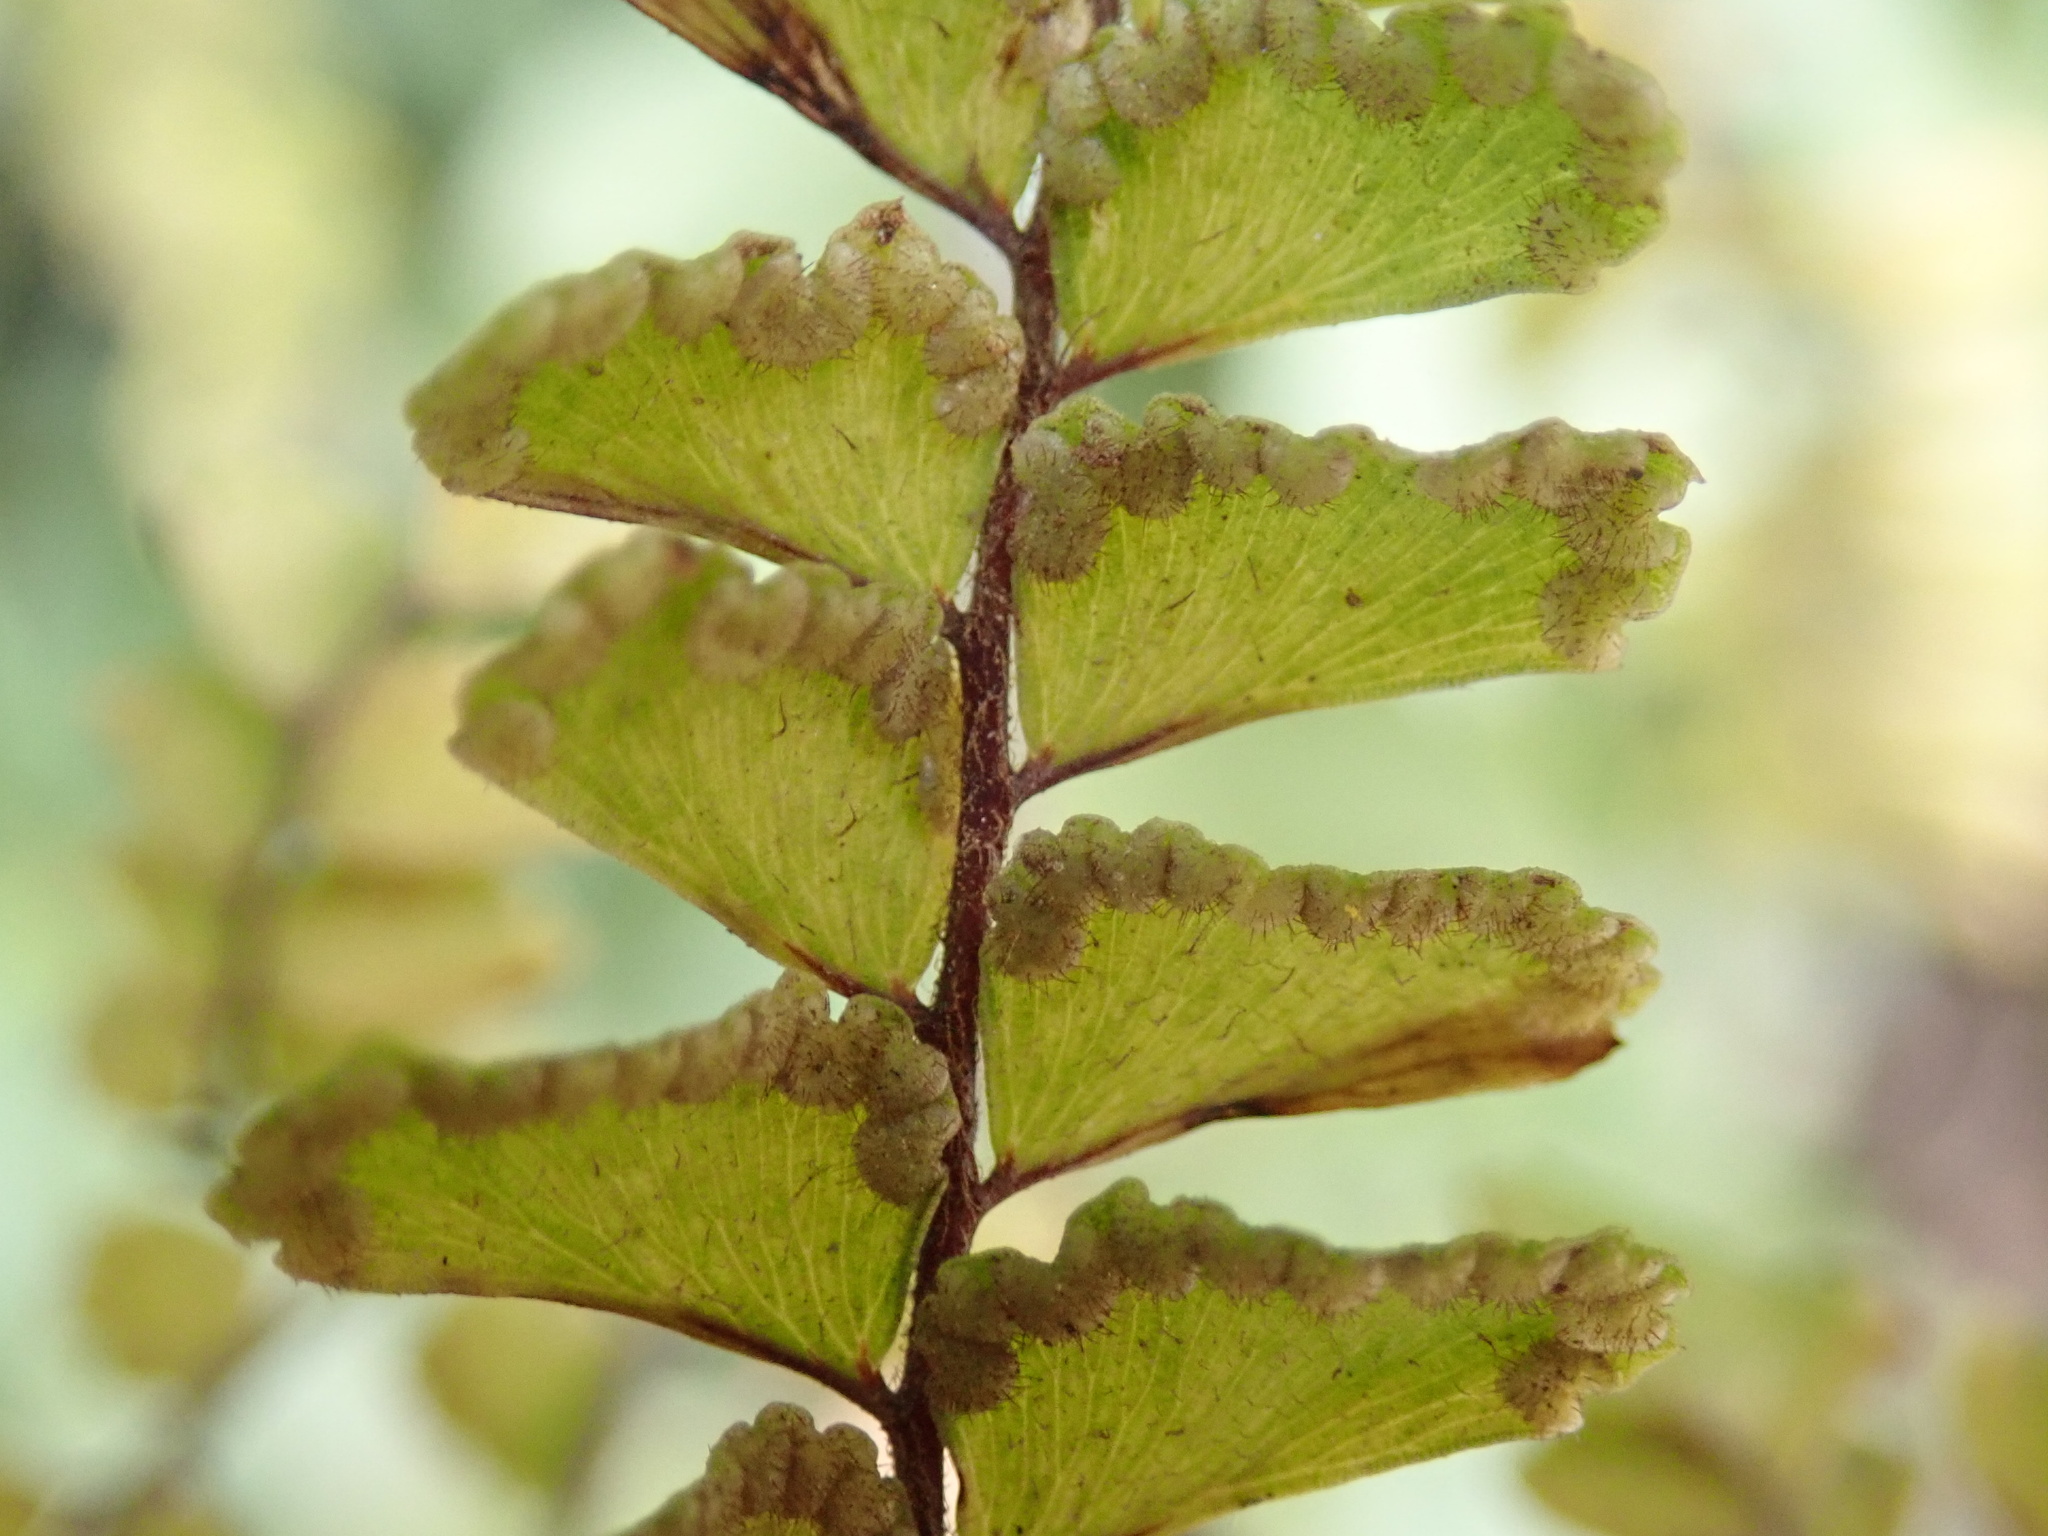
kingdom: Plantae
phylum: Tracheophyta
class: Polypodiopsida
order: Polypodiales
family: Pteridaceae
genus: Adiantum
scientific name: Adiantum hispidulum
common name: Rough maidenhair
